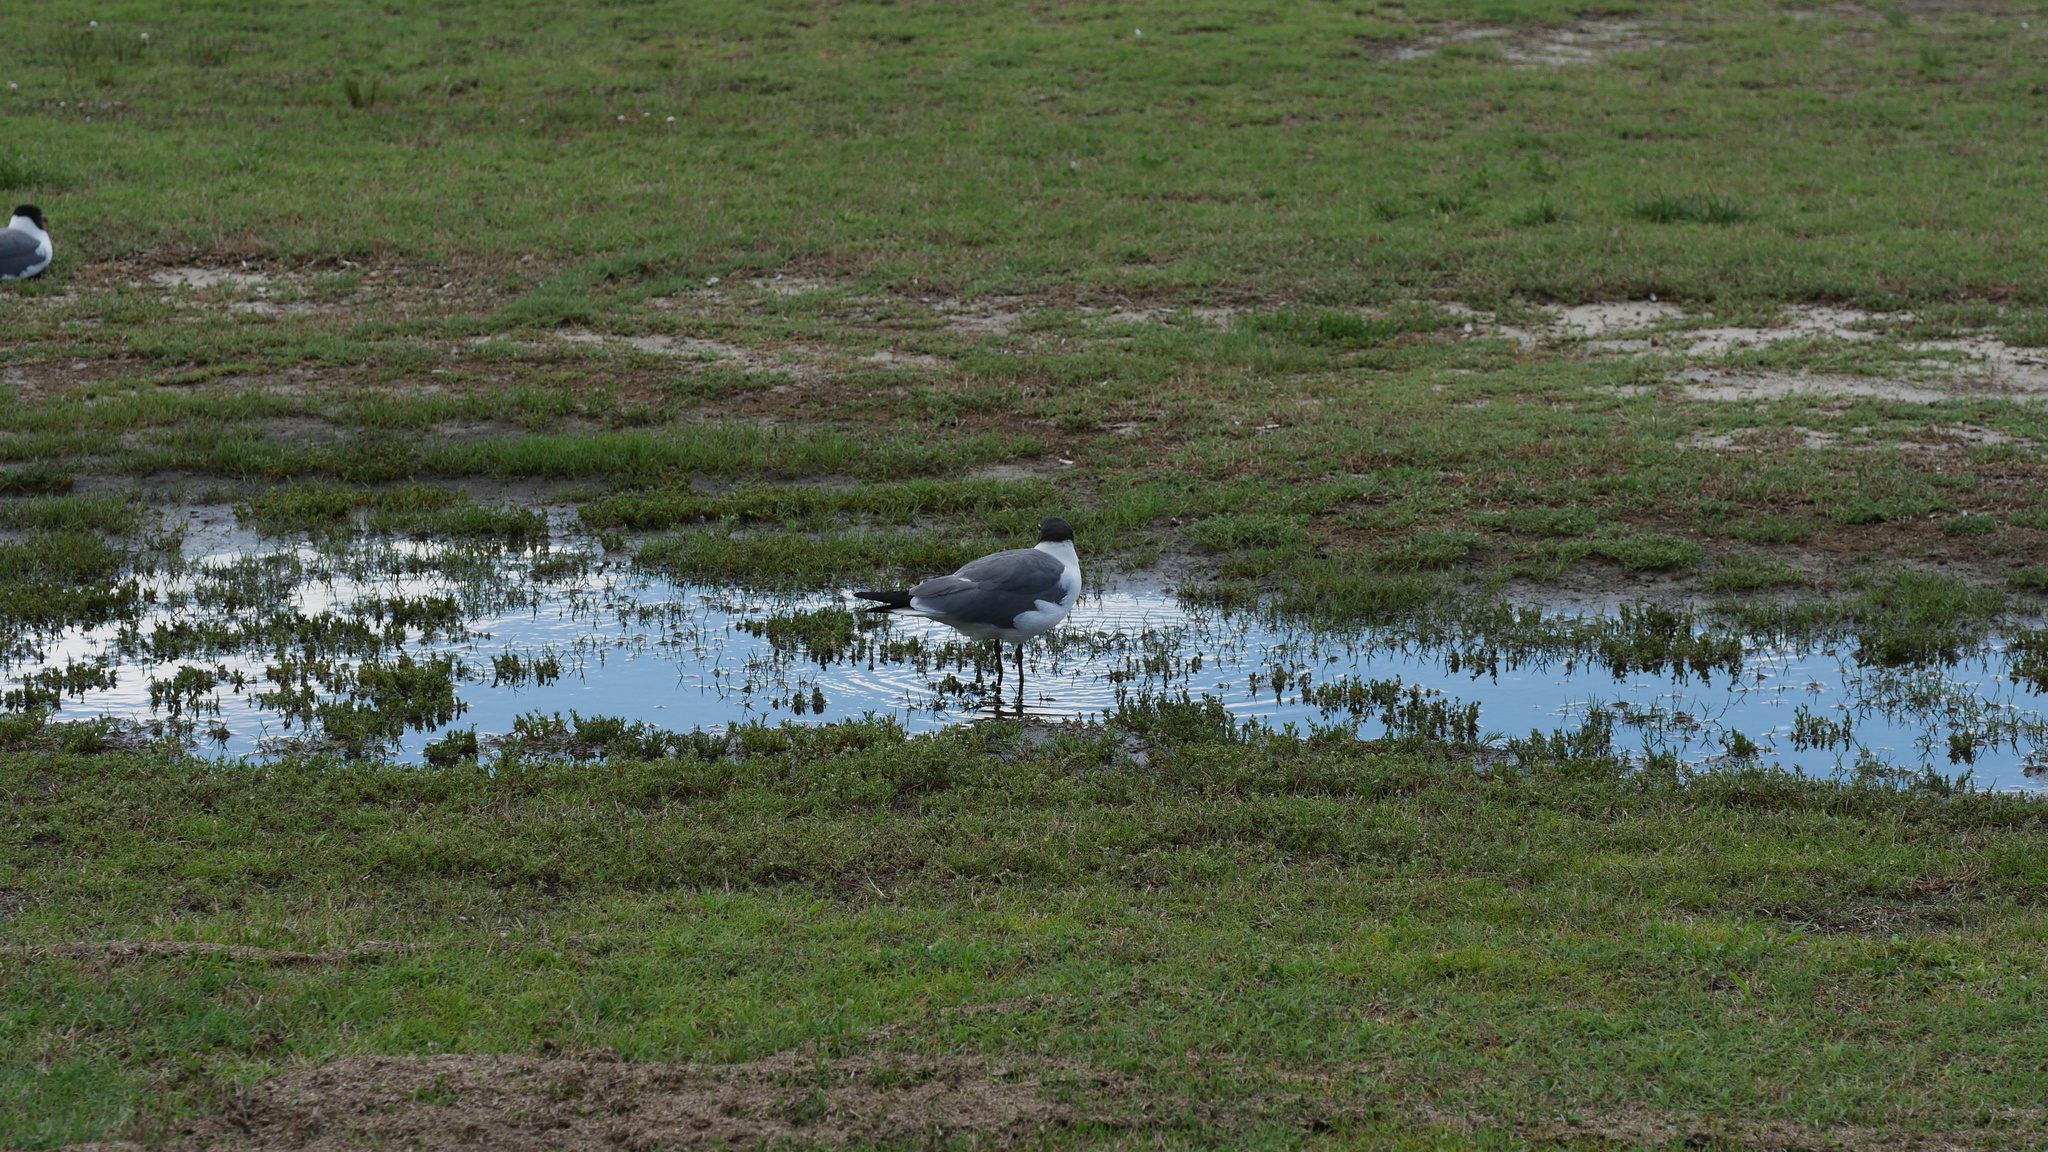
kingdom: Animalia
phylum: Chordata
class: Aves
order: Charadriiformes
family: Laridae
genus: Leucophaeus
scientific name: Leucophaeus atricilla
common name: Laughing gull
